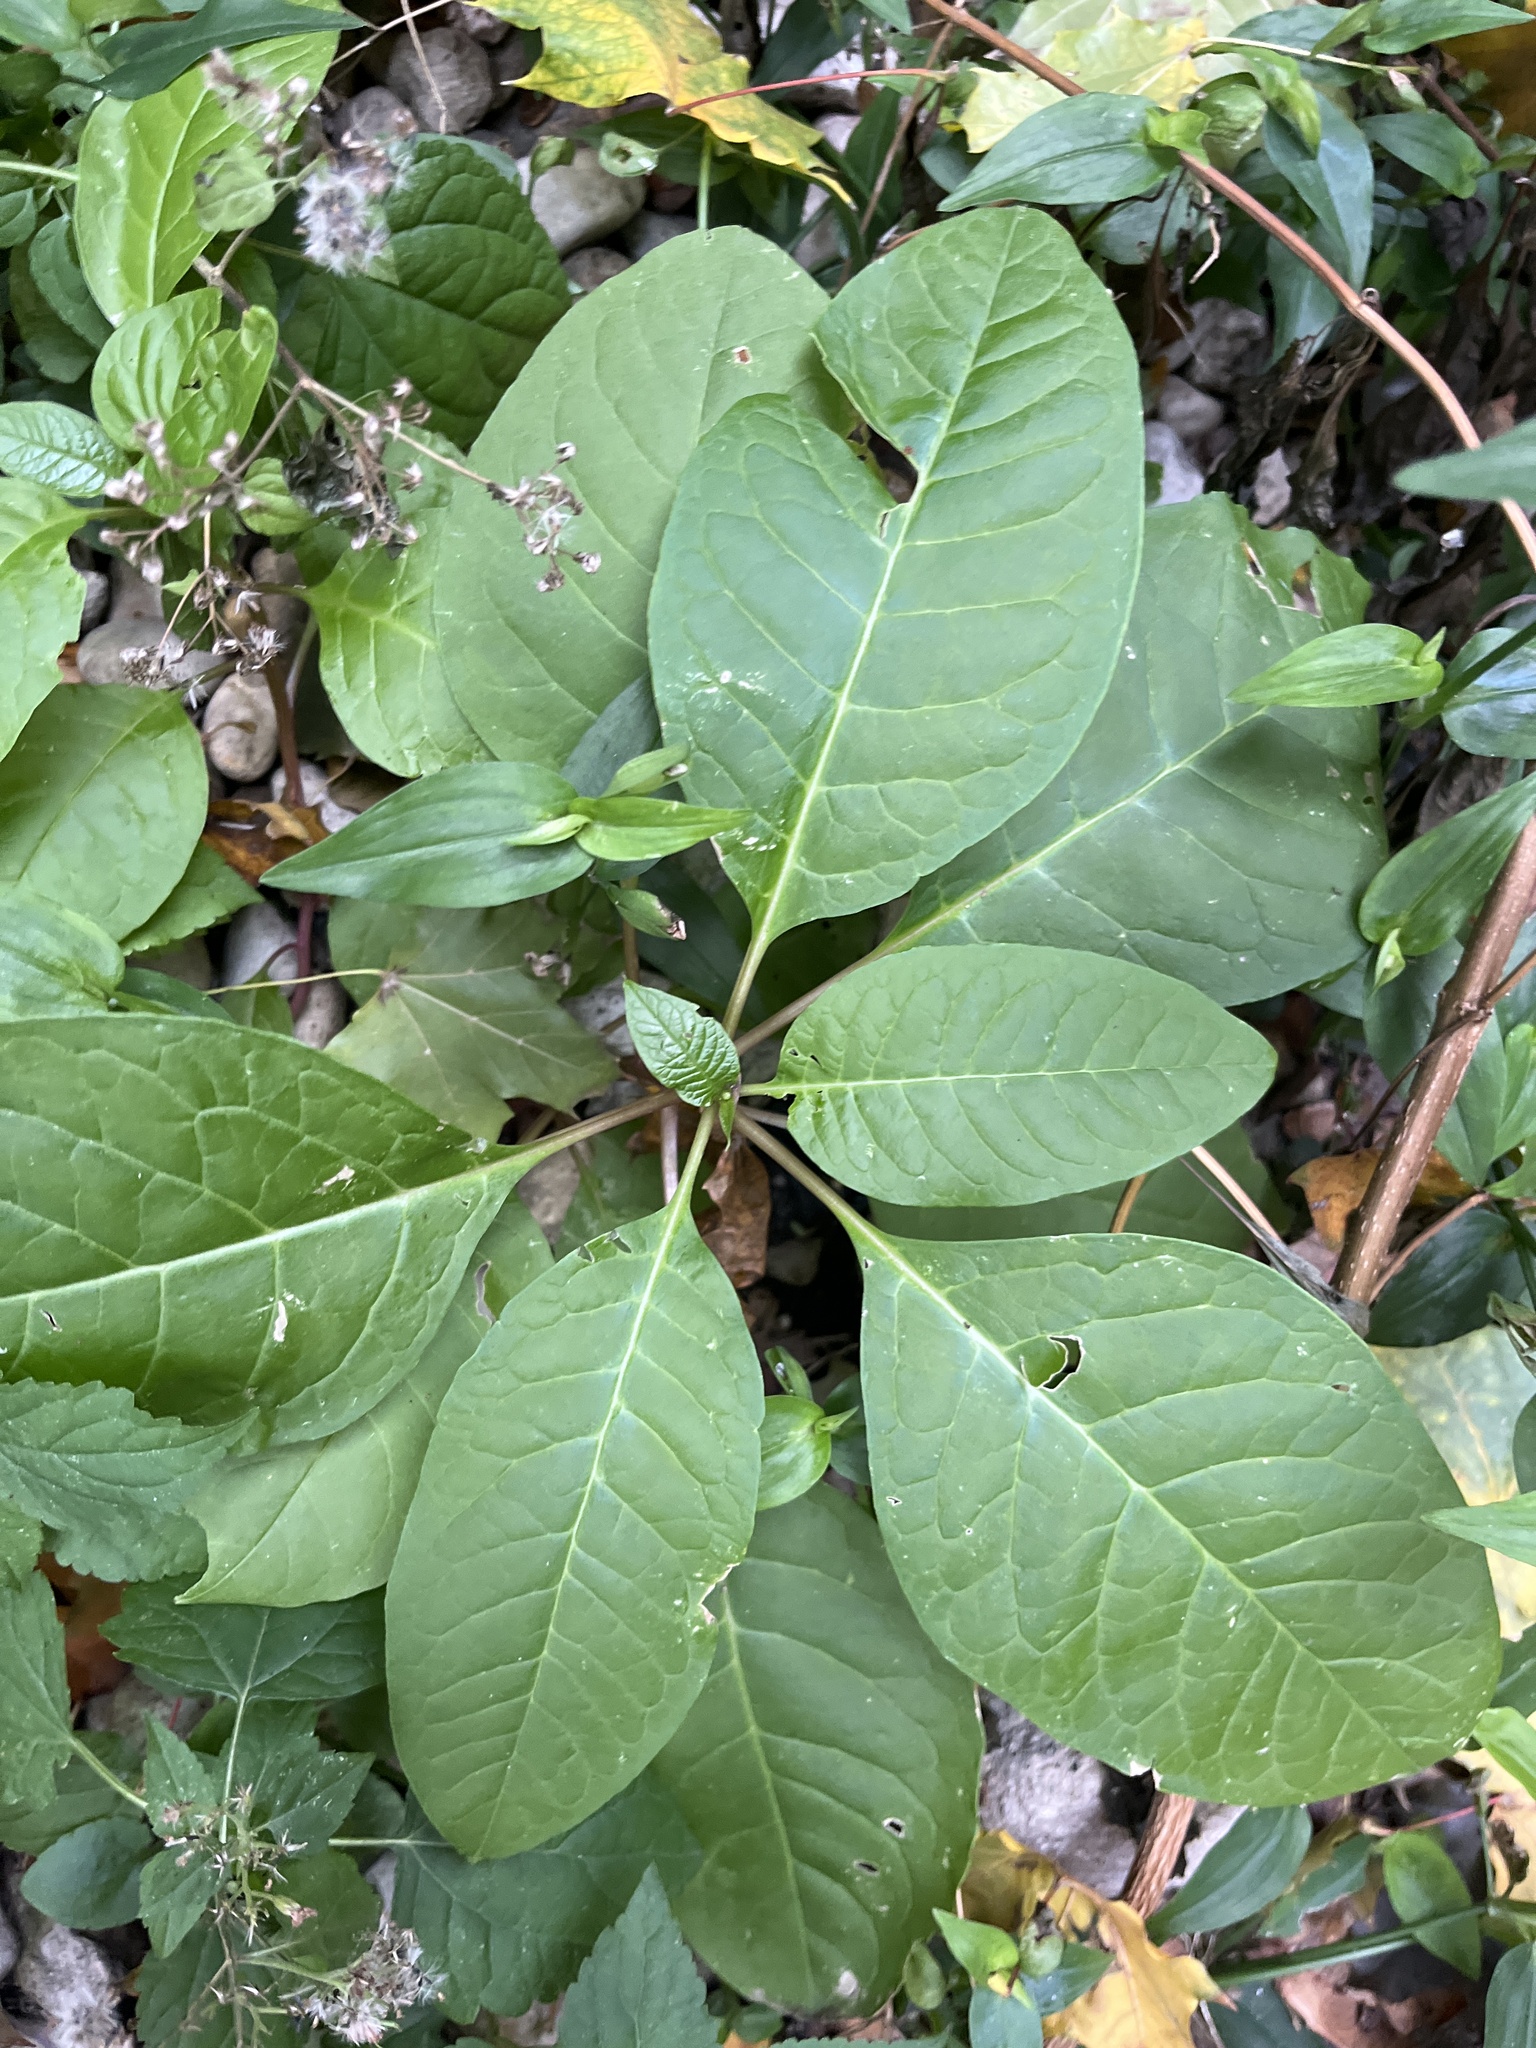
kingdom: Plantae
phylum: Tracheophyta
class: Magnoliopsida
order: Caryophyllales
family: Phytolaccaceae
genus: Phytolacca
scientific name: Phytolacca americana
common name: American pokeweed
